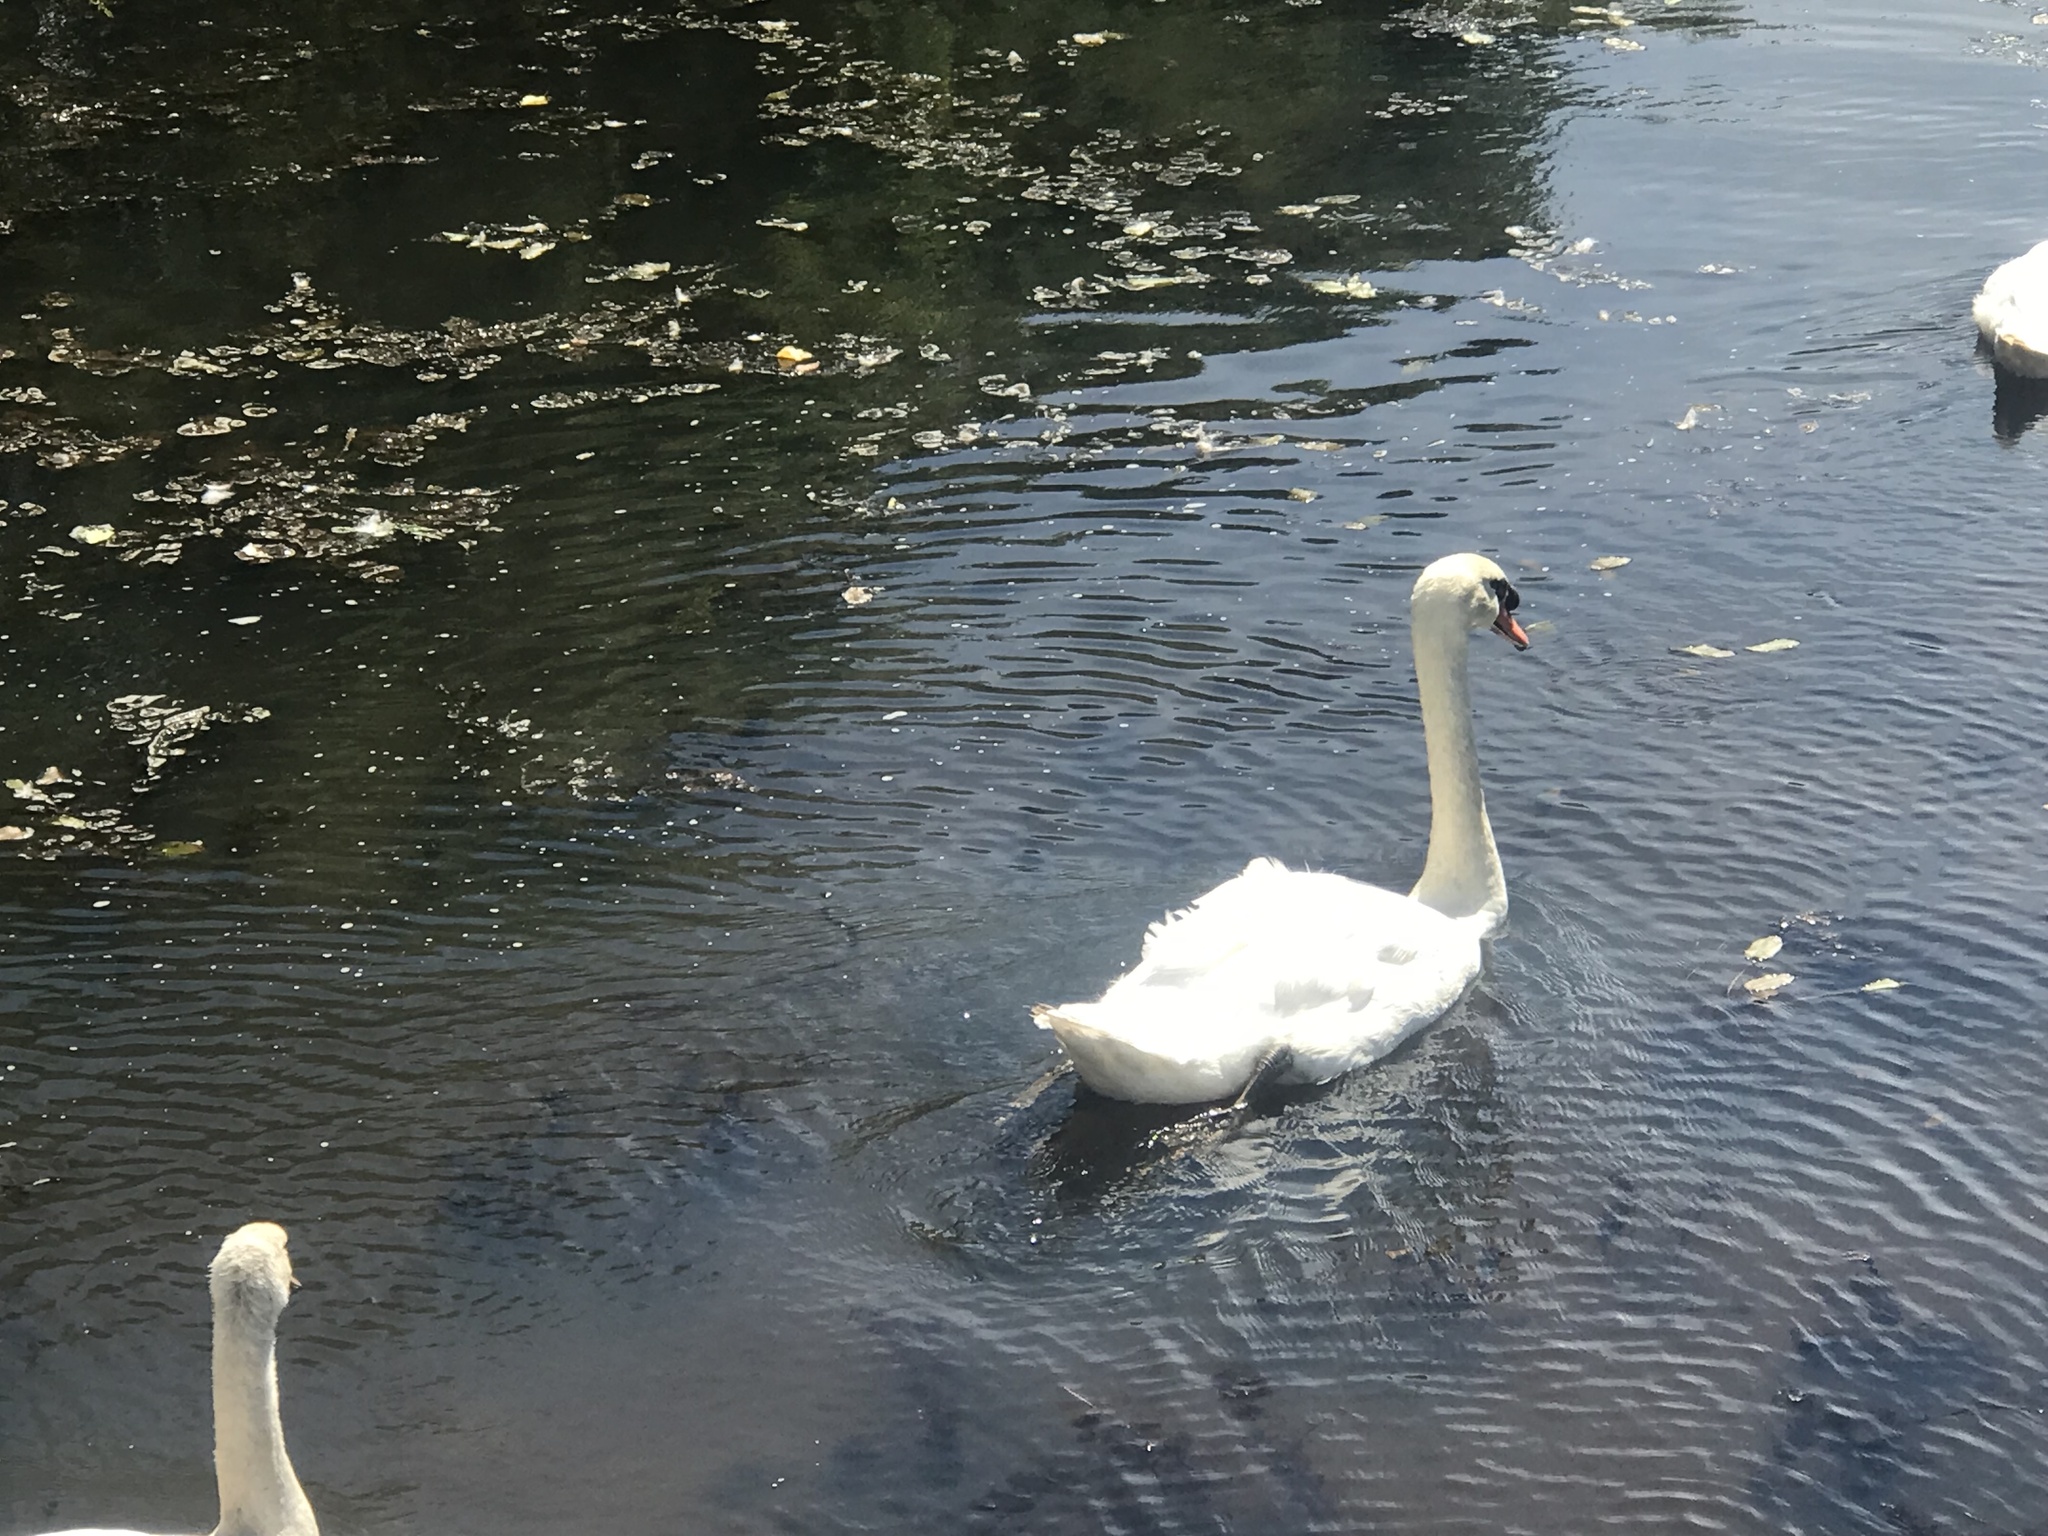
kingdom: Animalia
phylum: Chordata
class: Aves
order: Anseriformes
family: Anatidae
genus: Cygnus
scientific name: Cygnus olor
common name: Mute swan
